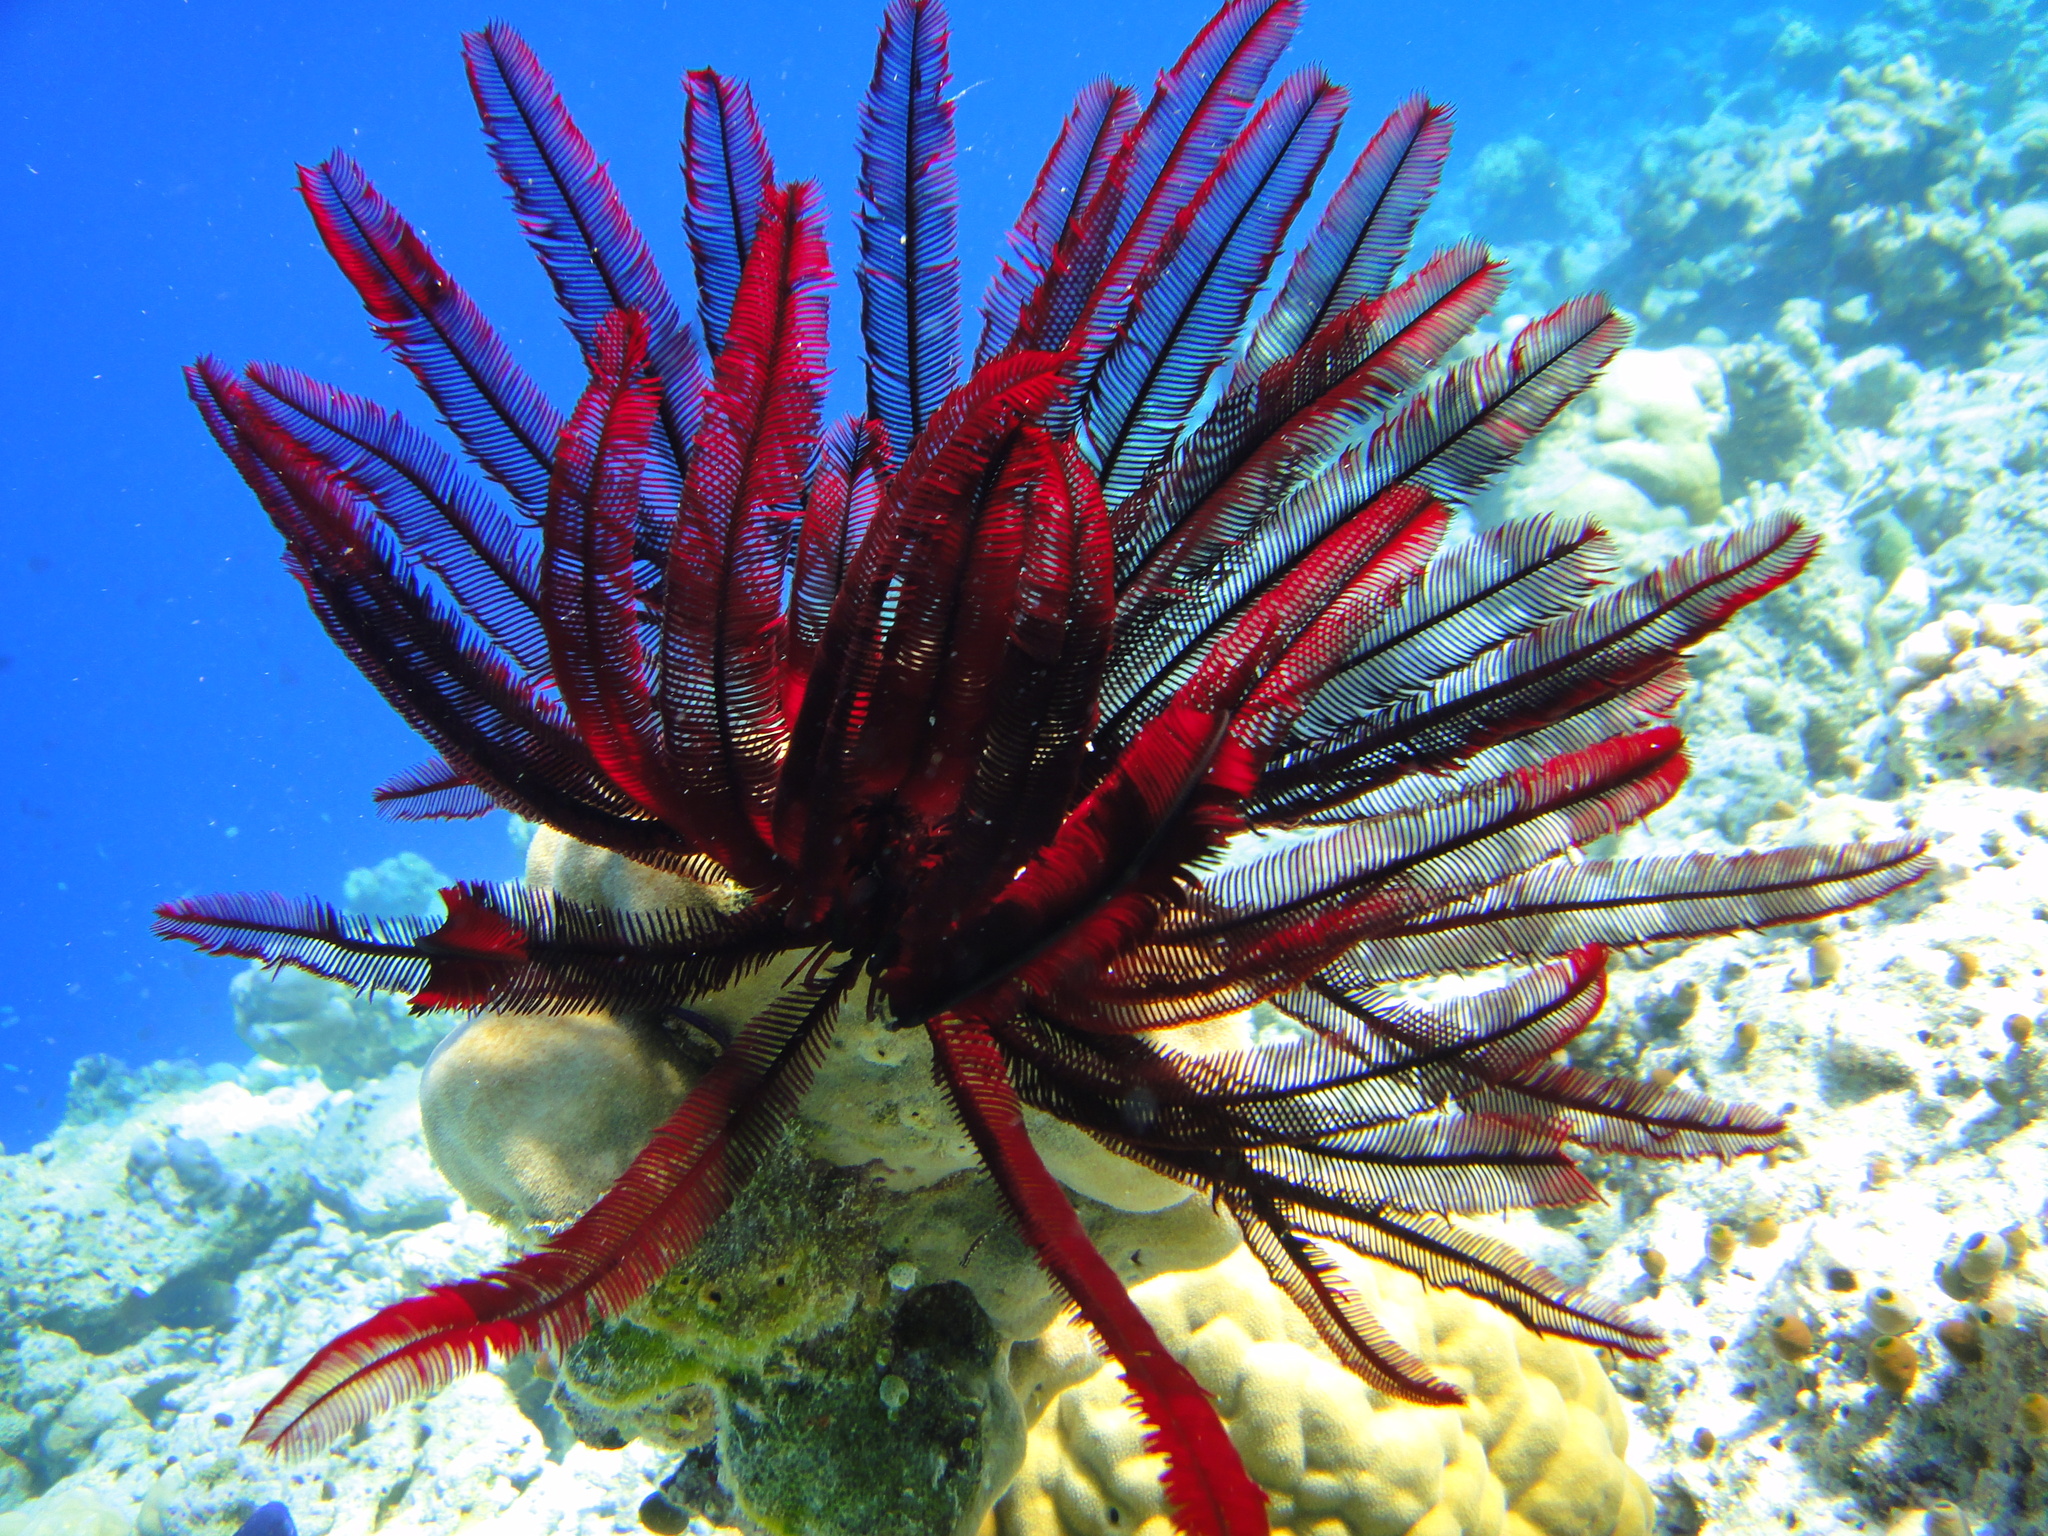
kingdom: Animalia
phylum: Echinodermata
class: Crinoidea
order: Comatulida
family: Himerometridae
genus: Himerometra
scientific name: Himerometra robustipinna
